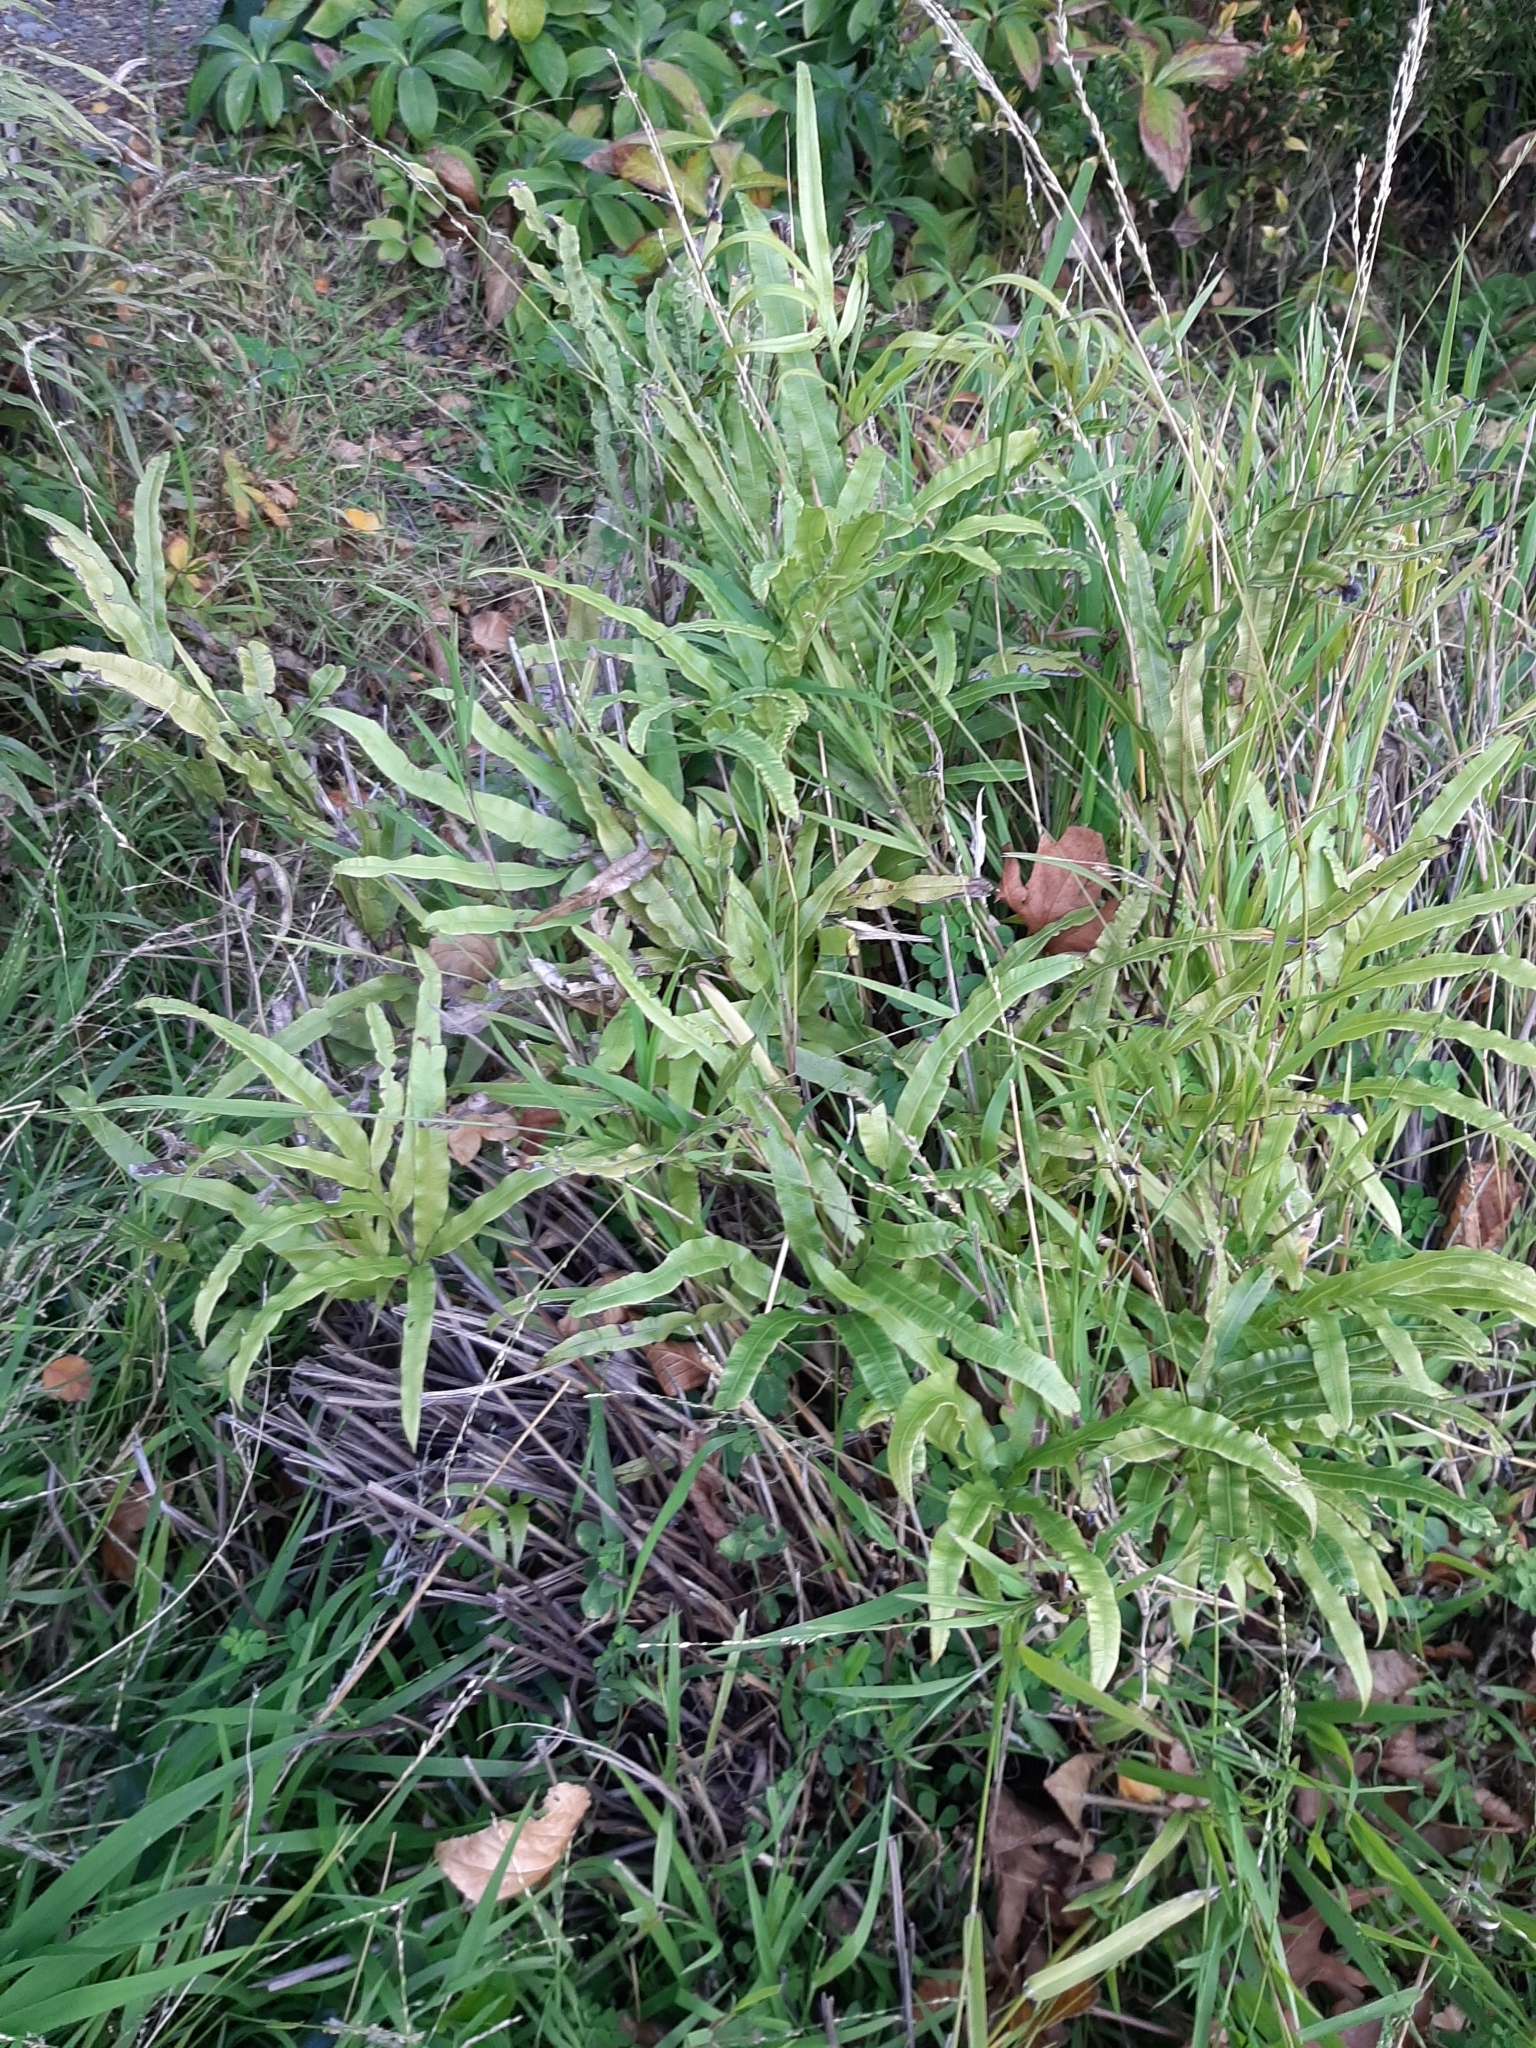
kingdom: Plantae
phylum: Tracheophyta
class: Polypodiopsida
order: Polypodiales
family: Pteridaceae
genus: Pteris
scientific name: Pteris cretica
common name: Ribbon fern
